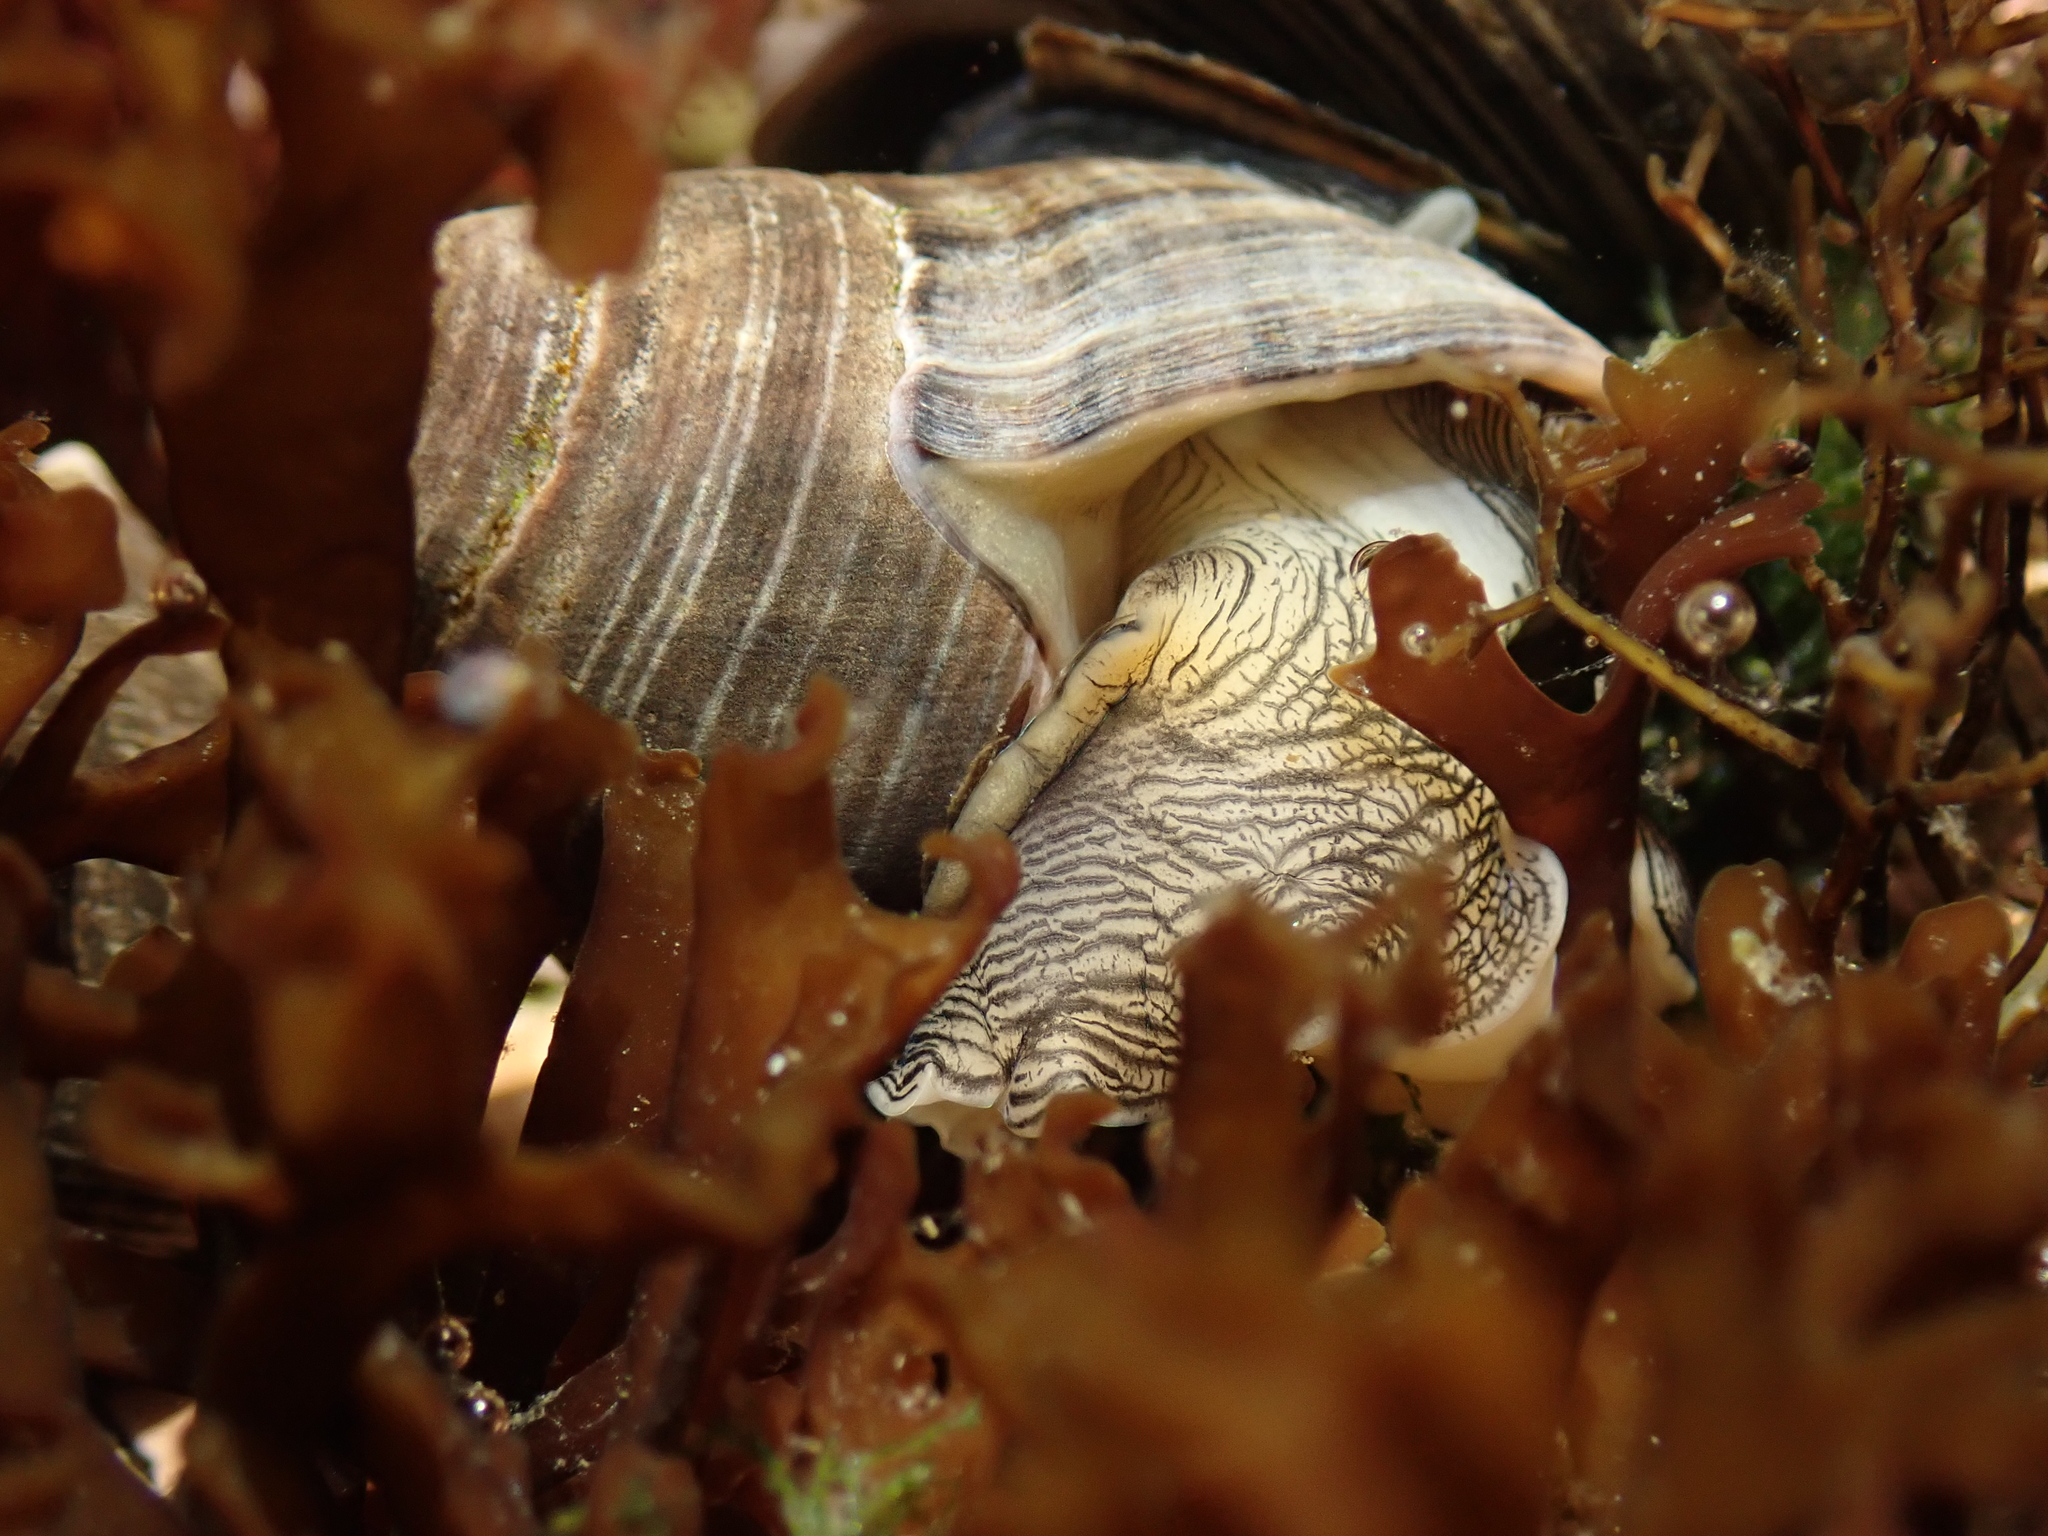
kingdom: Animalia
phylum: Mollusca
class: Gastropoda
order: Littorinimorpha
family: Littorinidae
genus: Littorina
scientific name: Littorina littorea
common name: Common periwinkle
